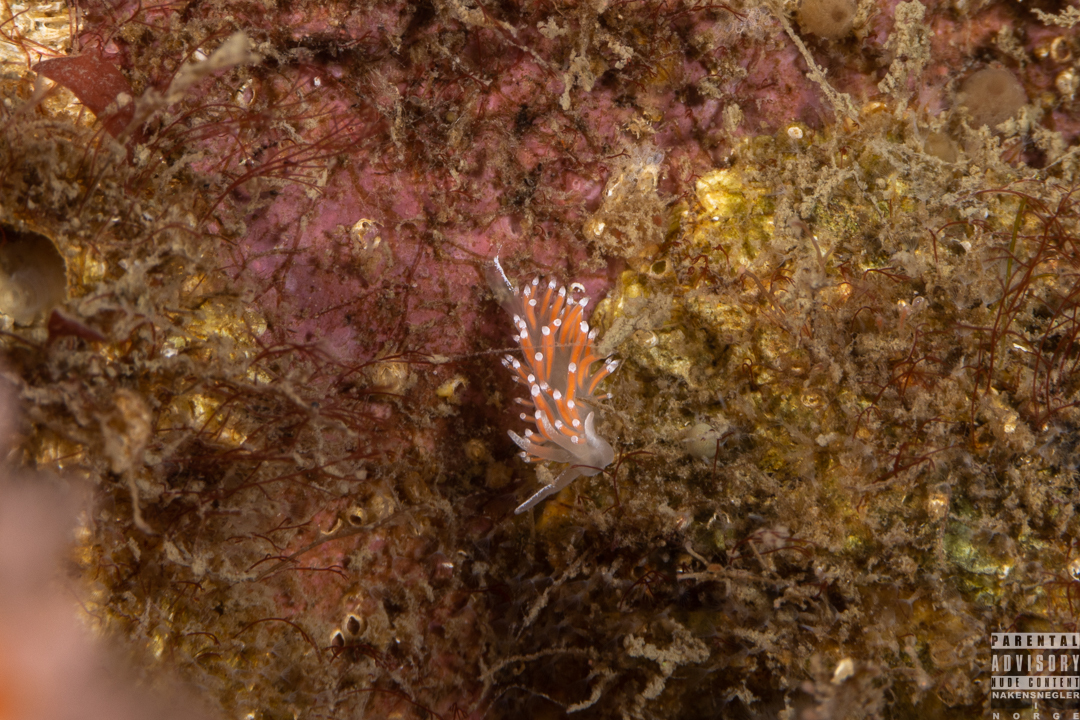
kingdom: Animalia
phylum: Mollusca
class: Gastropoda
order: Nudibranchia
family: Coryphellidae
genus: Coryphella
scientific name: Coryphella gracilis
